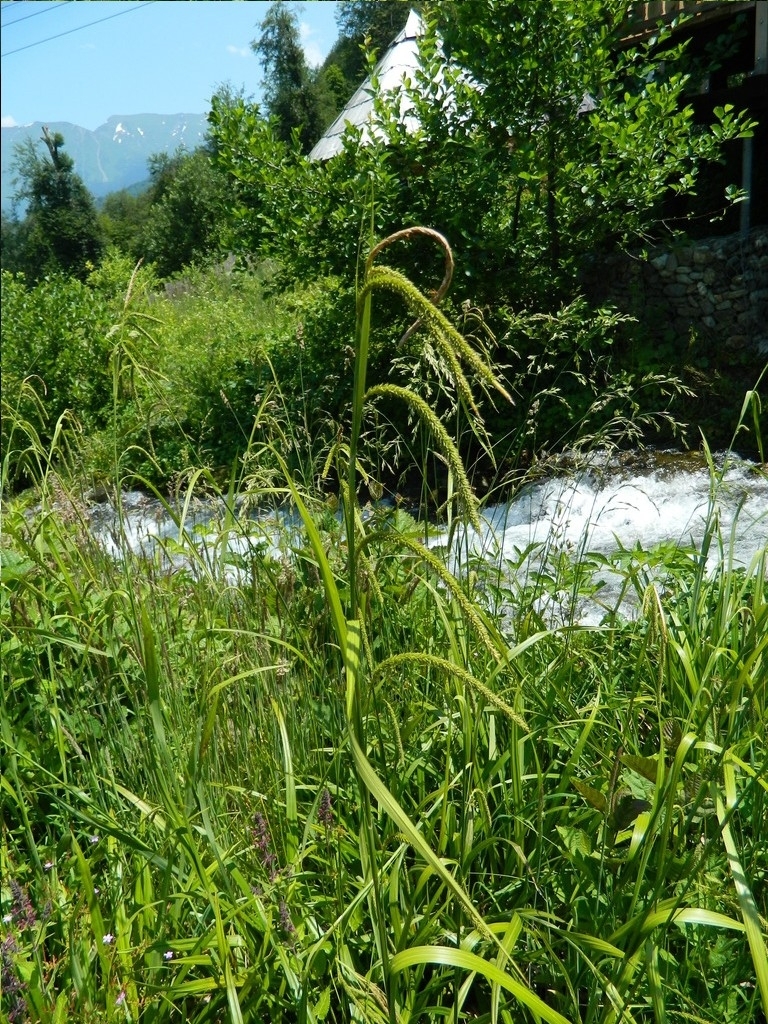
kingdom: Plantae
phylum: Tracheophyta
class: Liliopsida
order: Poales
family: Cyperaceae
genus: Carex
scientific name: Carex pendula
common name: Pendulous sedge
